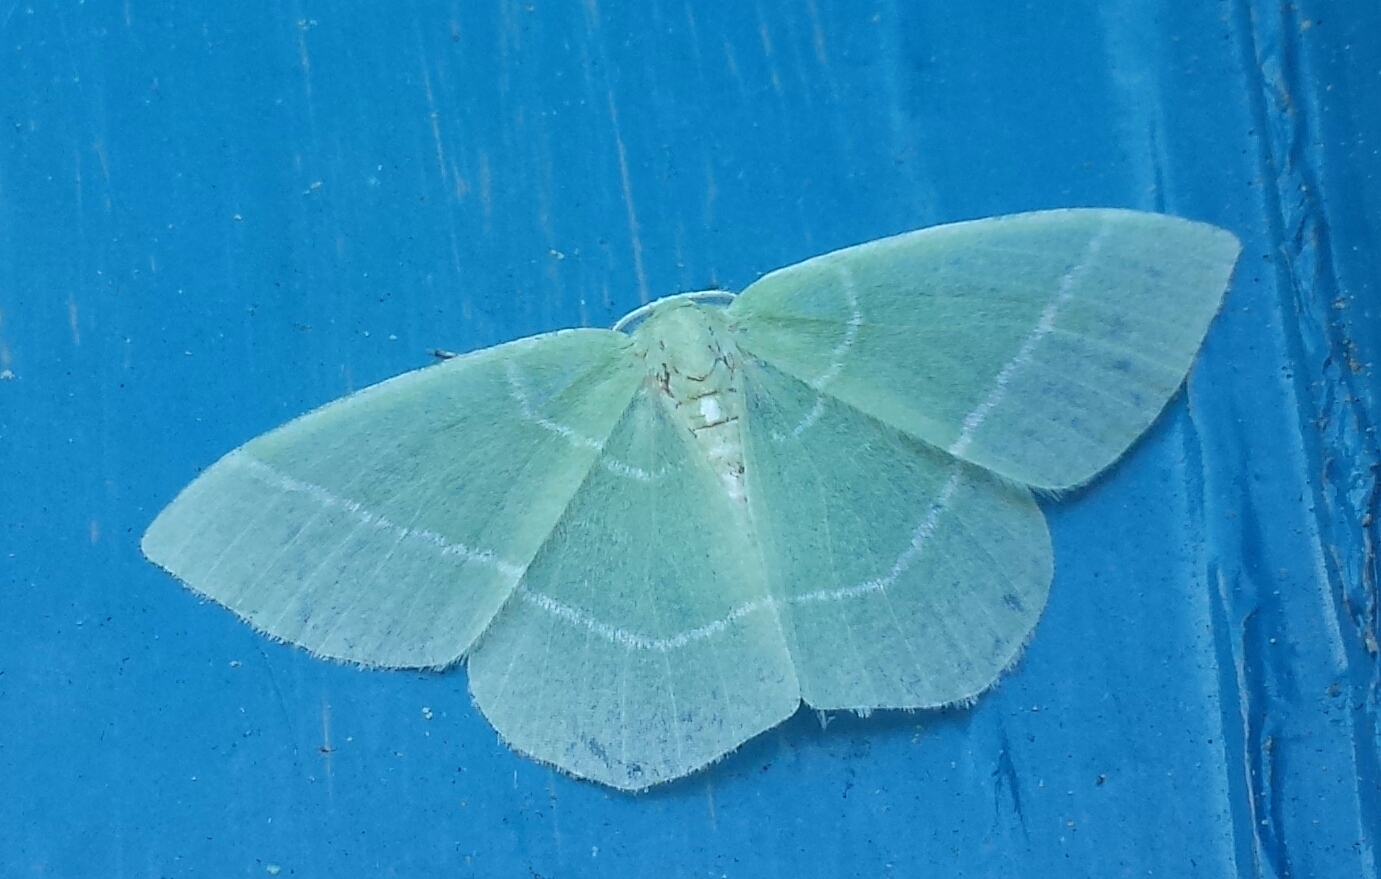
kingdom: Animalia
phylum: Arthropoda
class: Insecta
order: Lepidoptera
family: Geometridae
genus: Nemoria
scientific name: Nemoria mimosaria
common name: White-fringed emerald
